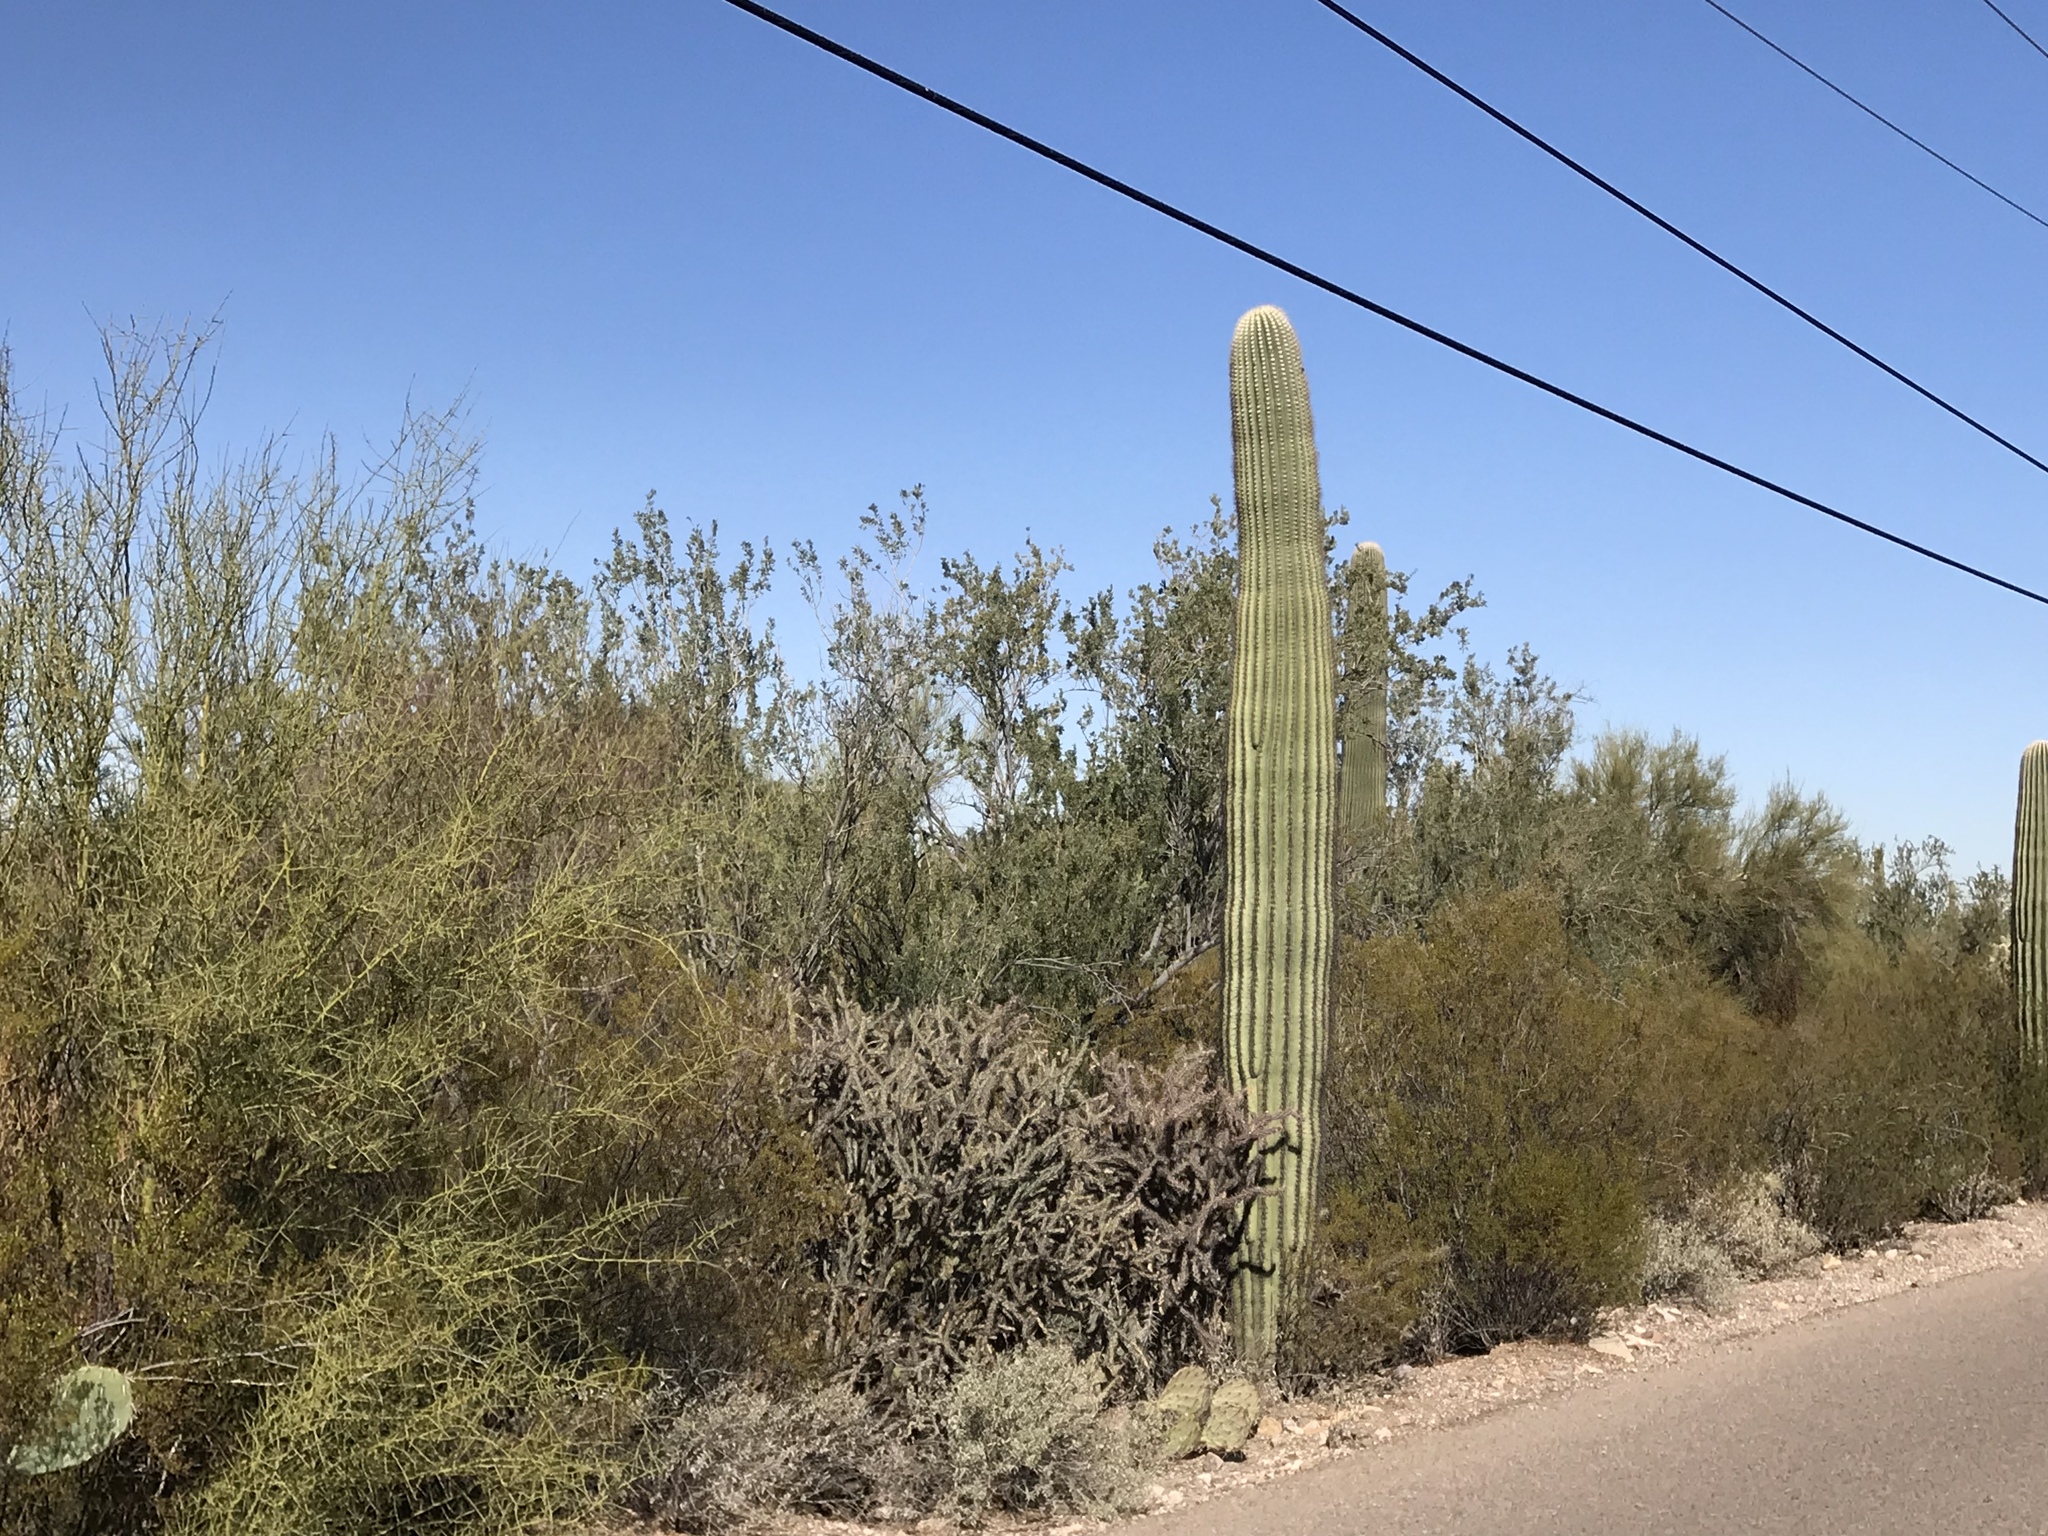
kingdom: Plantae
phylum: Tracheophyta
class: Magnoliopsida
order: Caryophyllales
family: Cactaceae
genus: Carnegiea
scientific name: Carnegiea gigantea
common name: Saguaro
